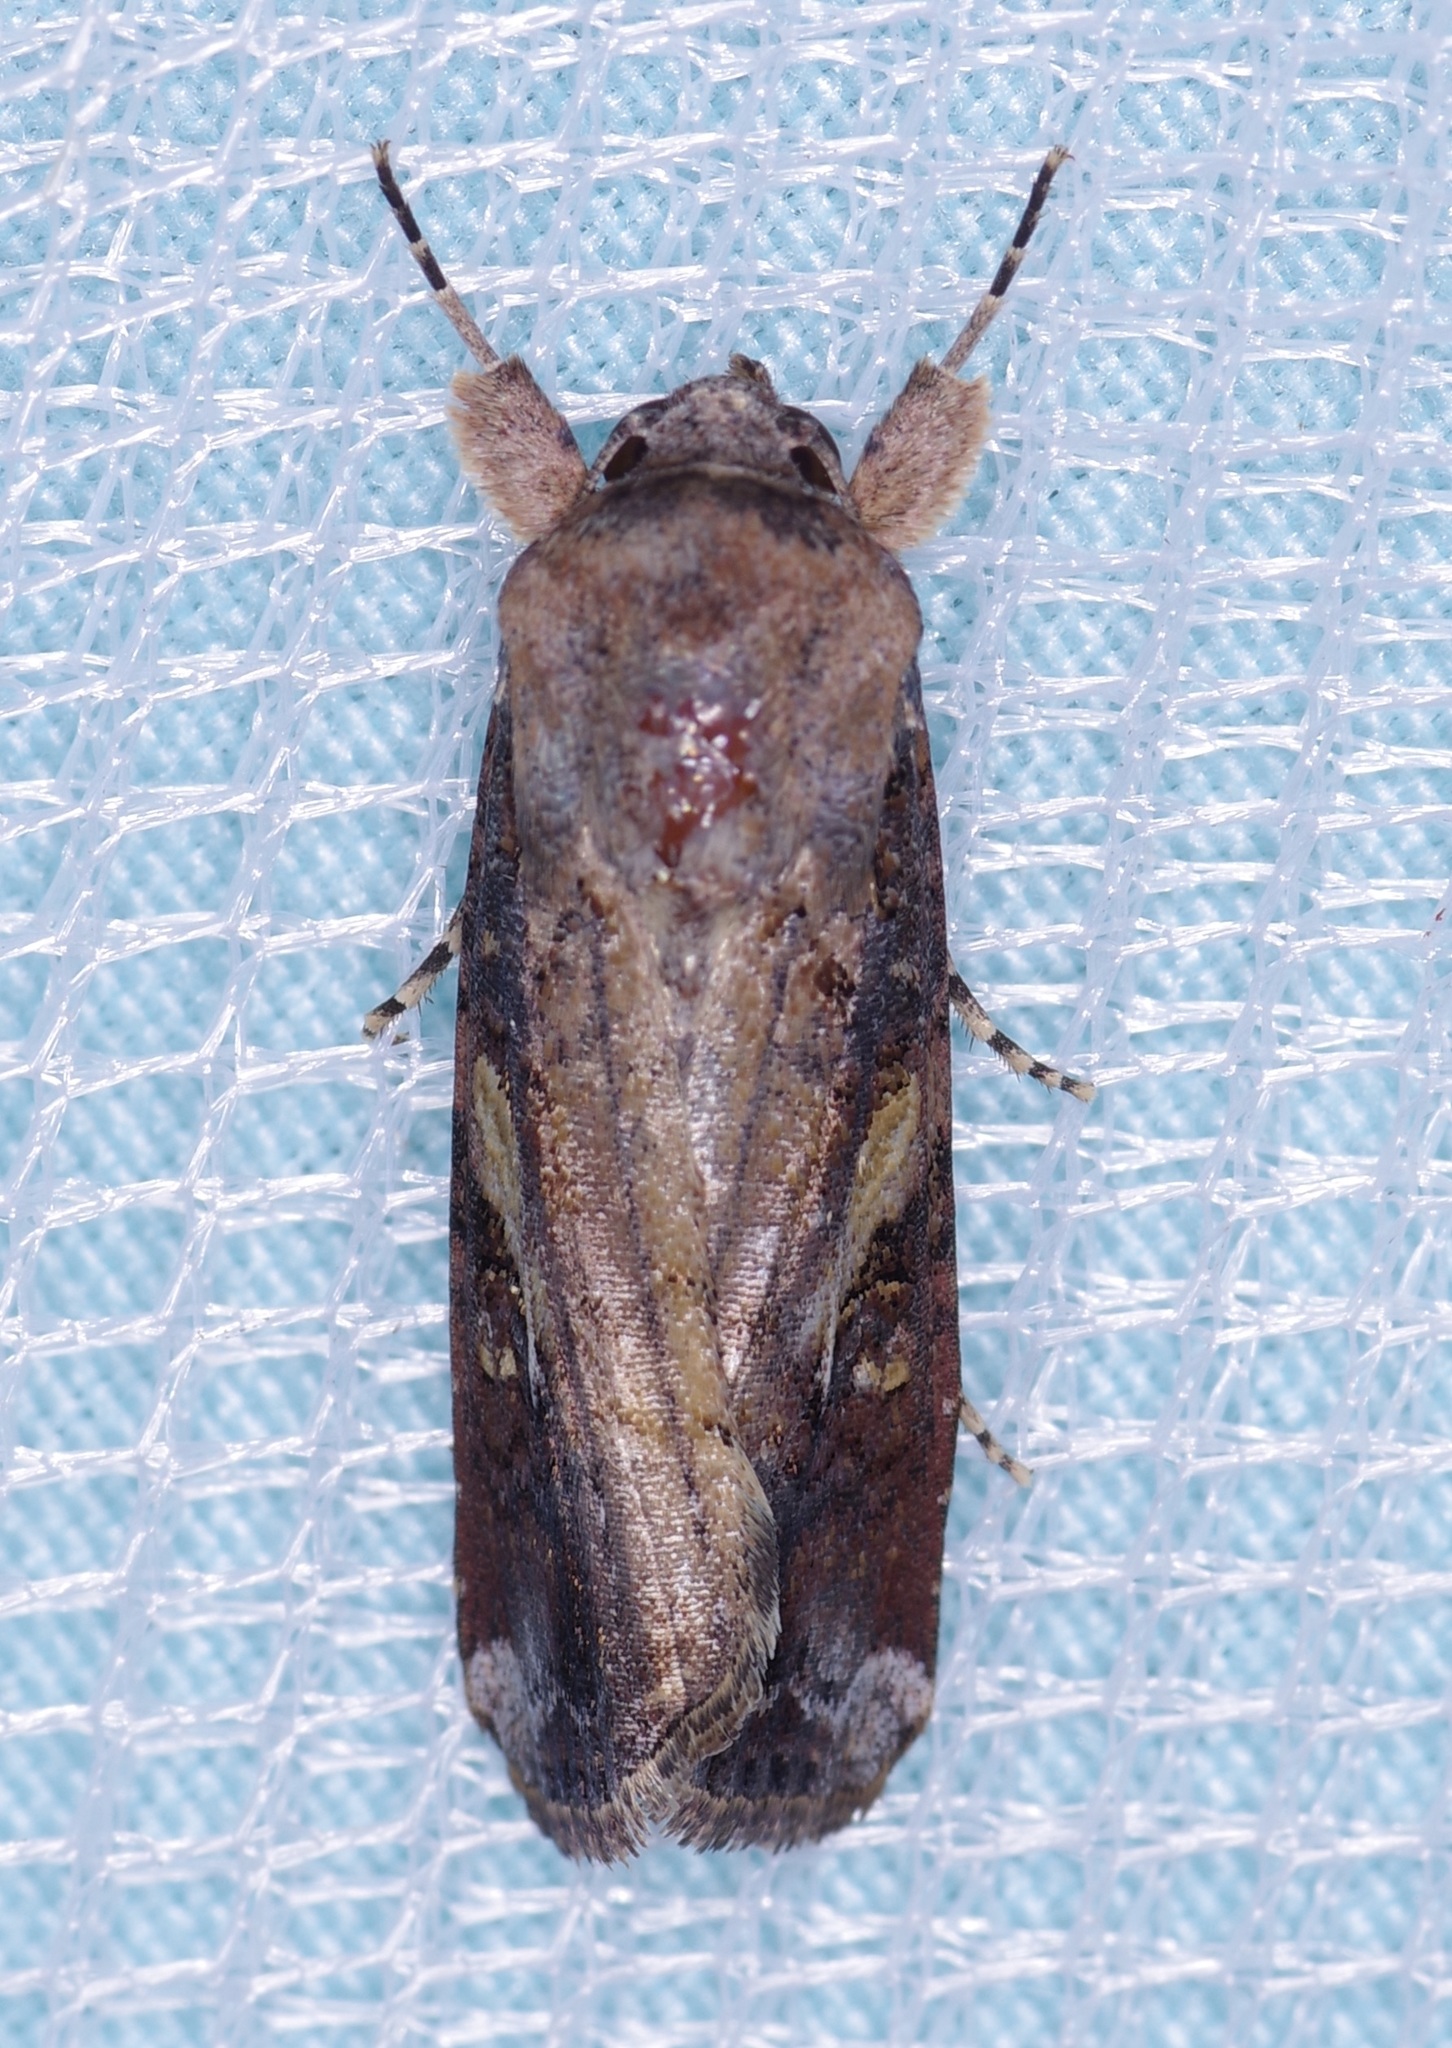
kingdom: Animalia
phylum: Arthropoda
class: Insecta
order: Lepidoptera
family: Noctuidae
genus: Spodoptera
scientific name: Spodoptera frugiperda
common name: Fall armyworm
